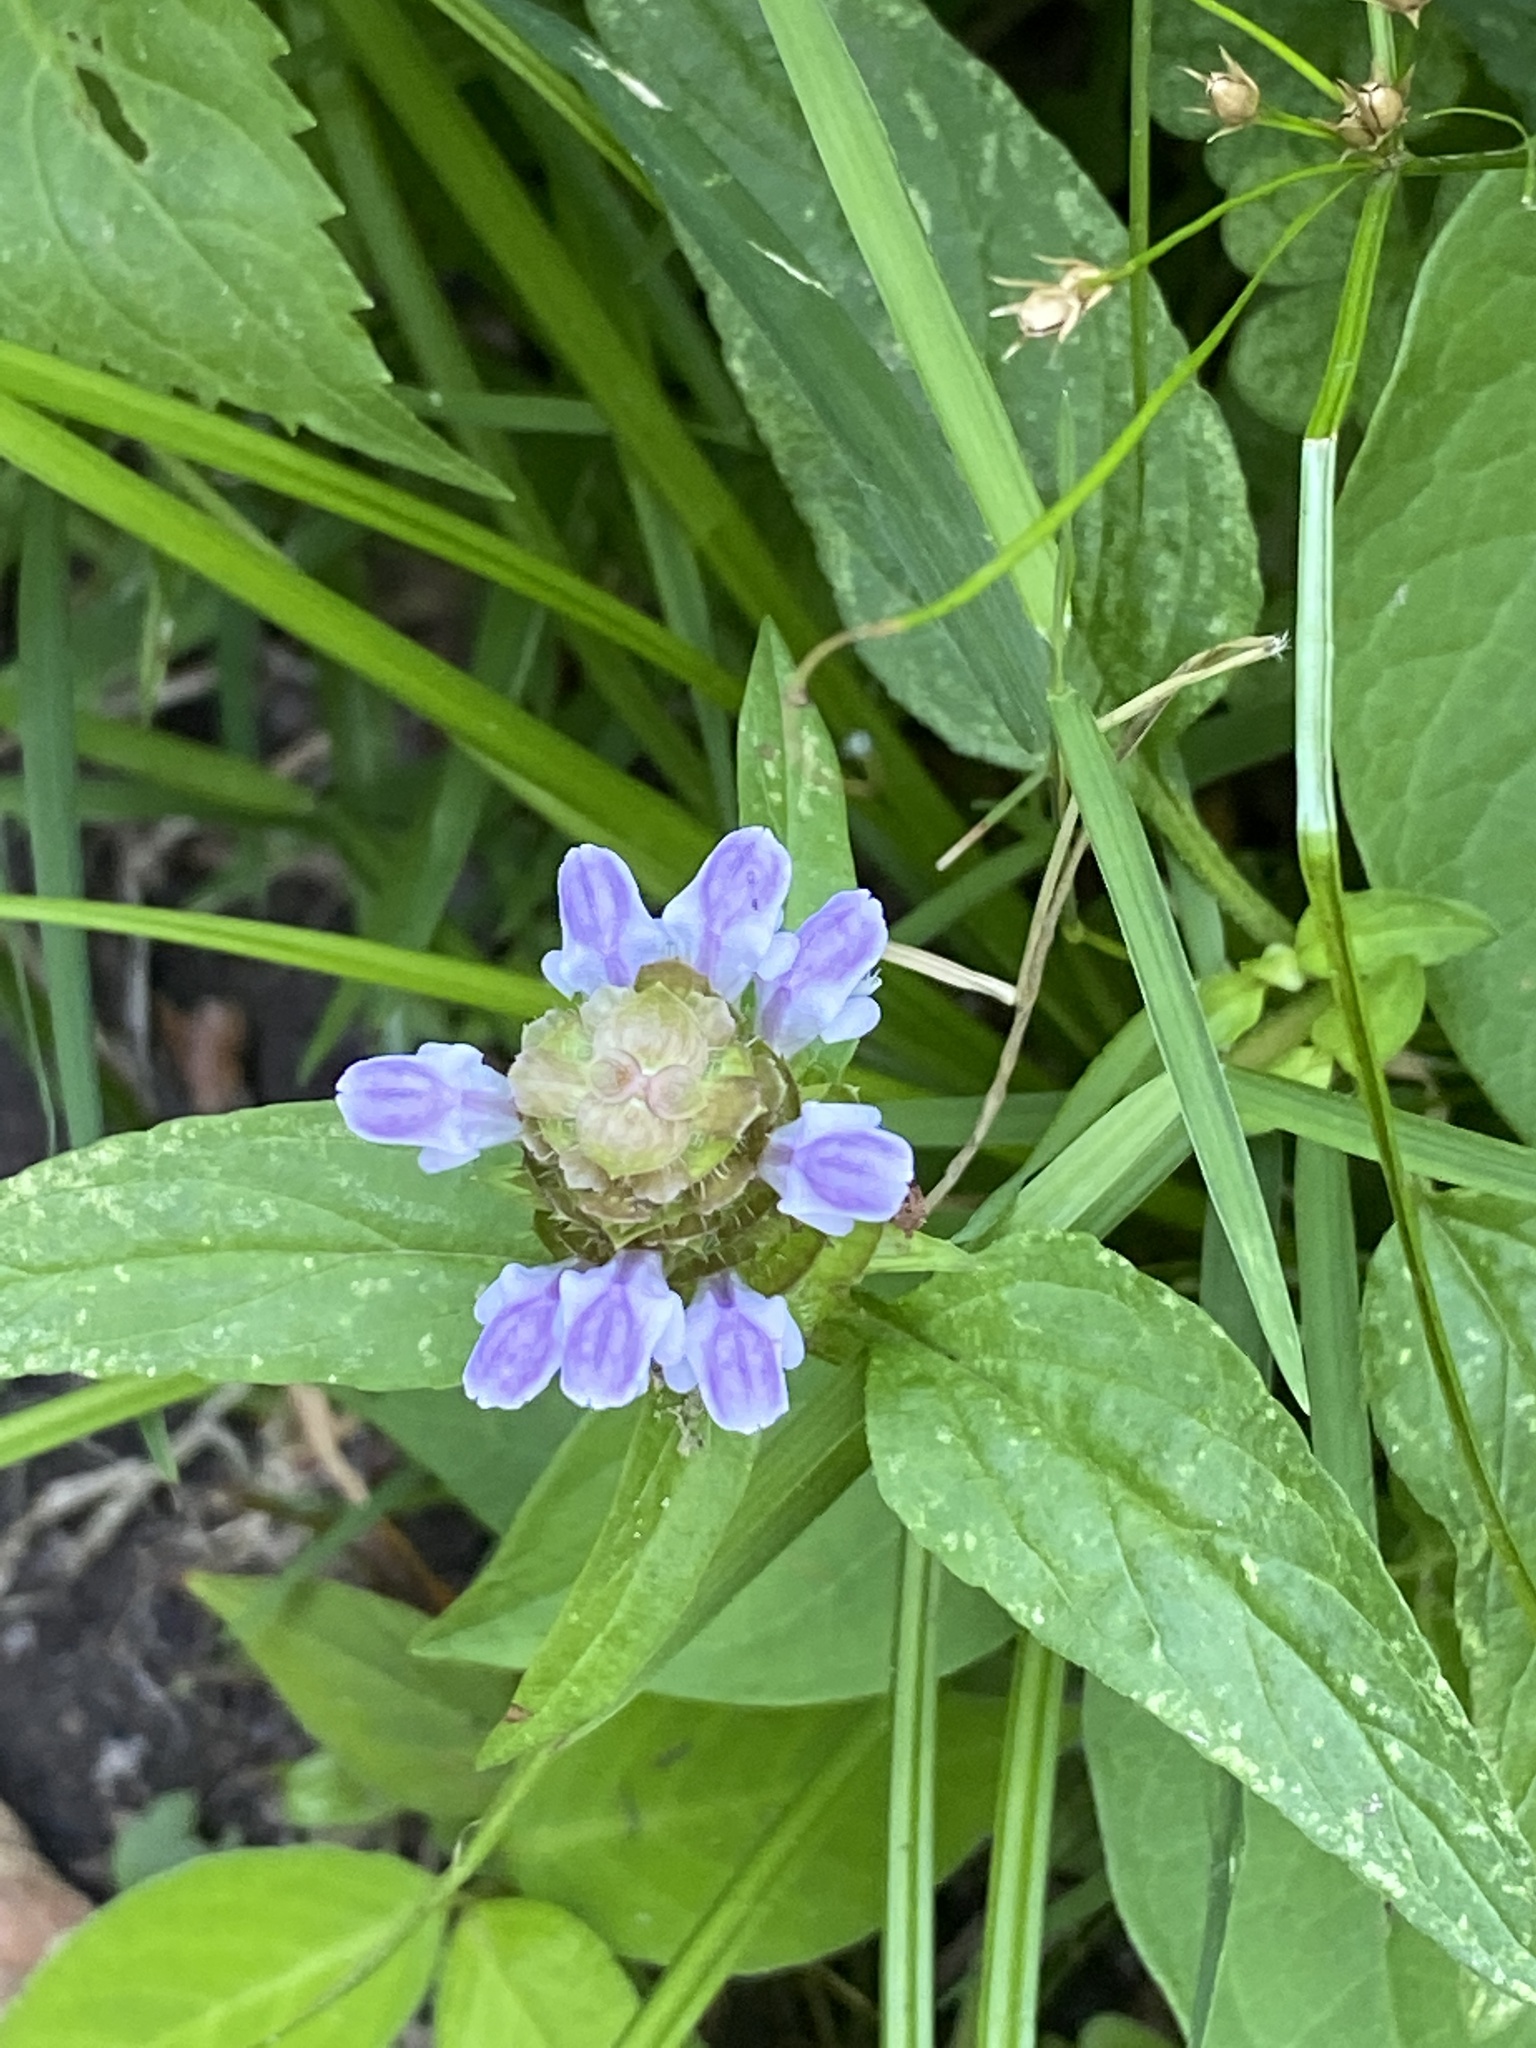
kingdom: Plantae
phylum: Tracheophyta
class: Magnoliopsida
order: Lamiales
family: Lamiaceae
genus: Prunella
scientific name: Prunella vulgaris
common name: Heal-all
